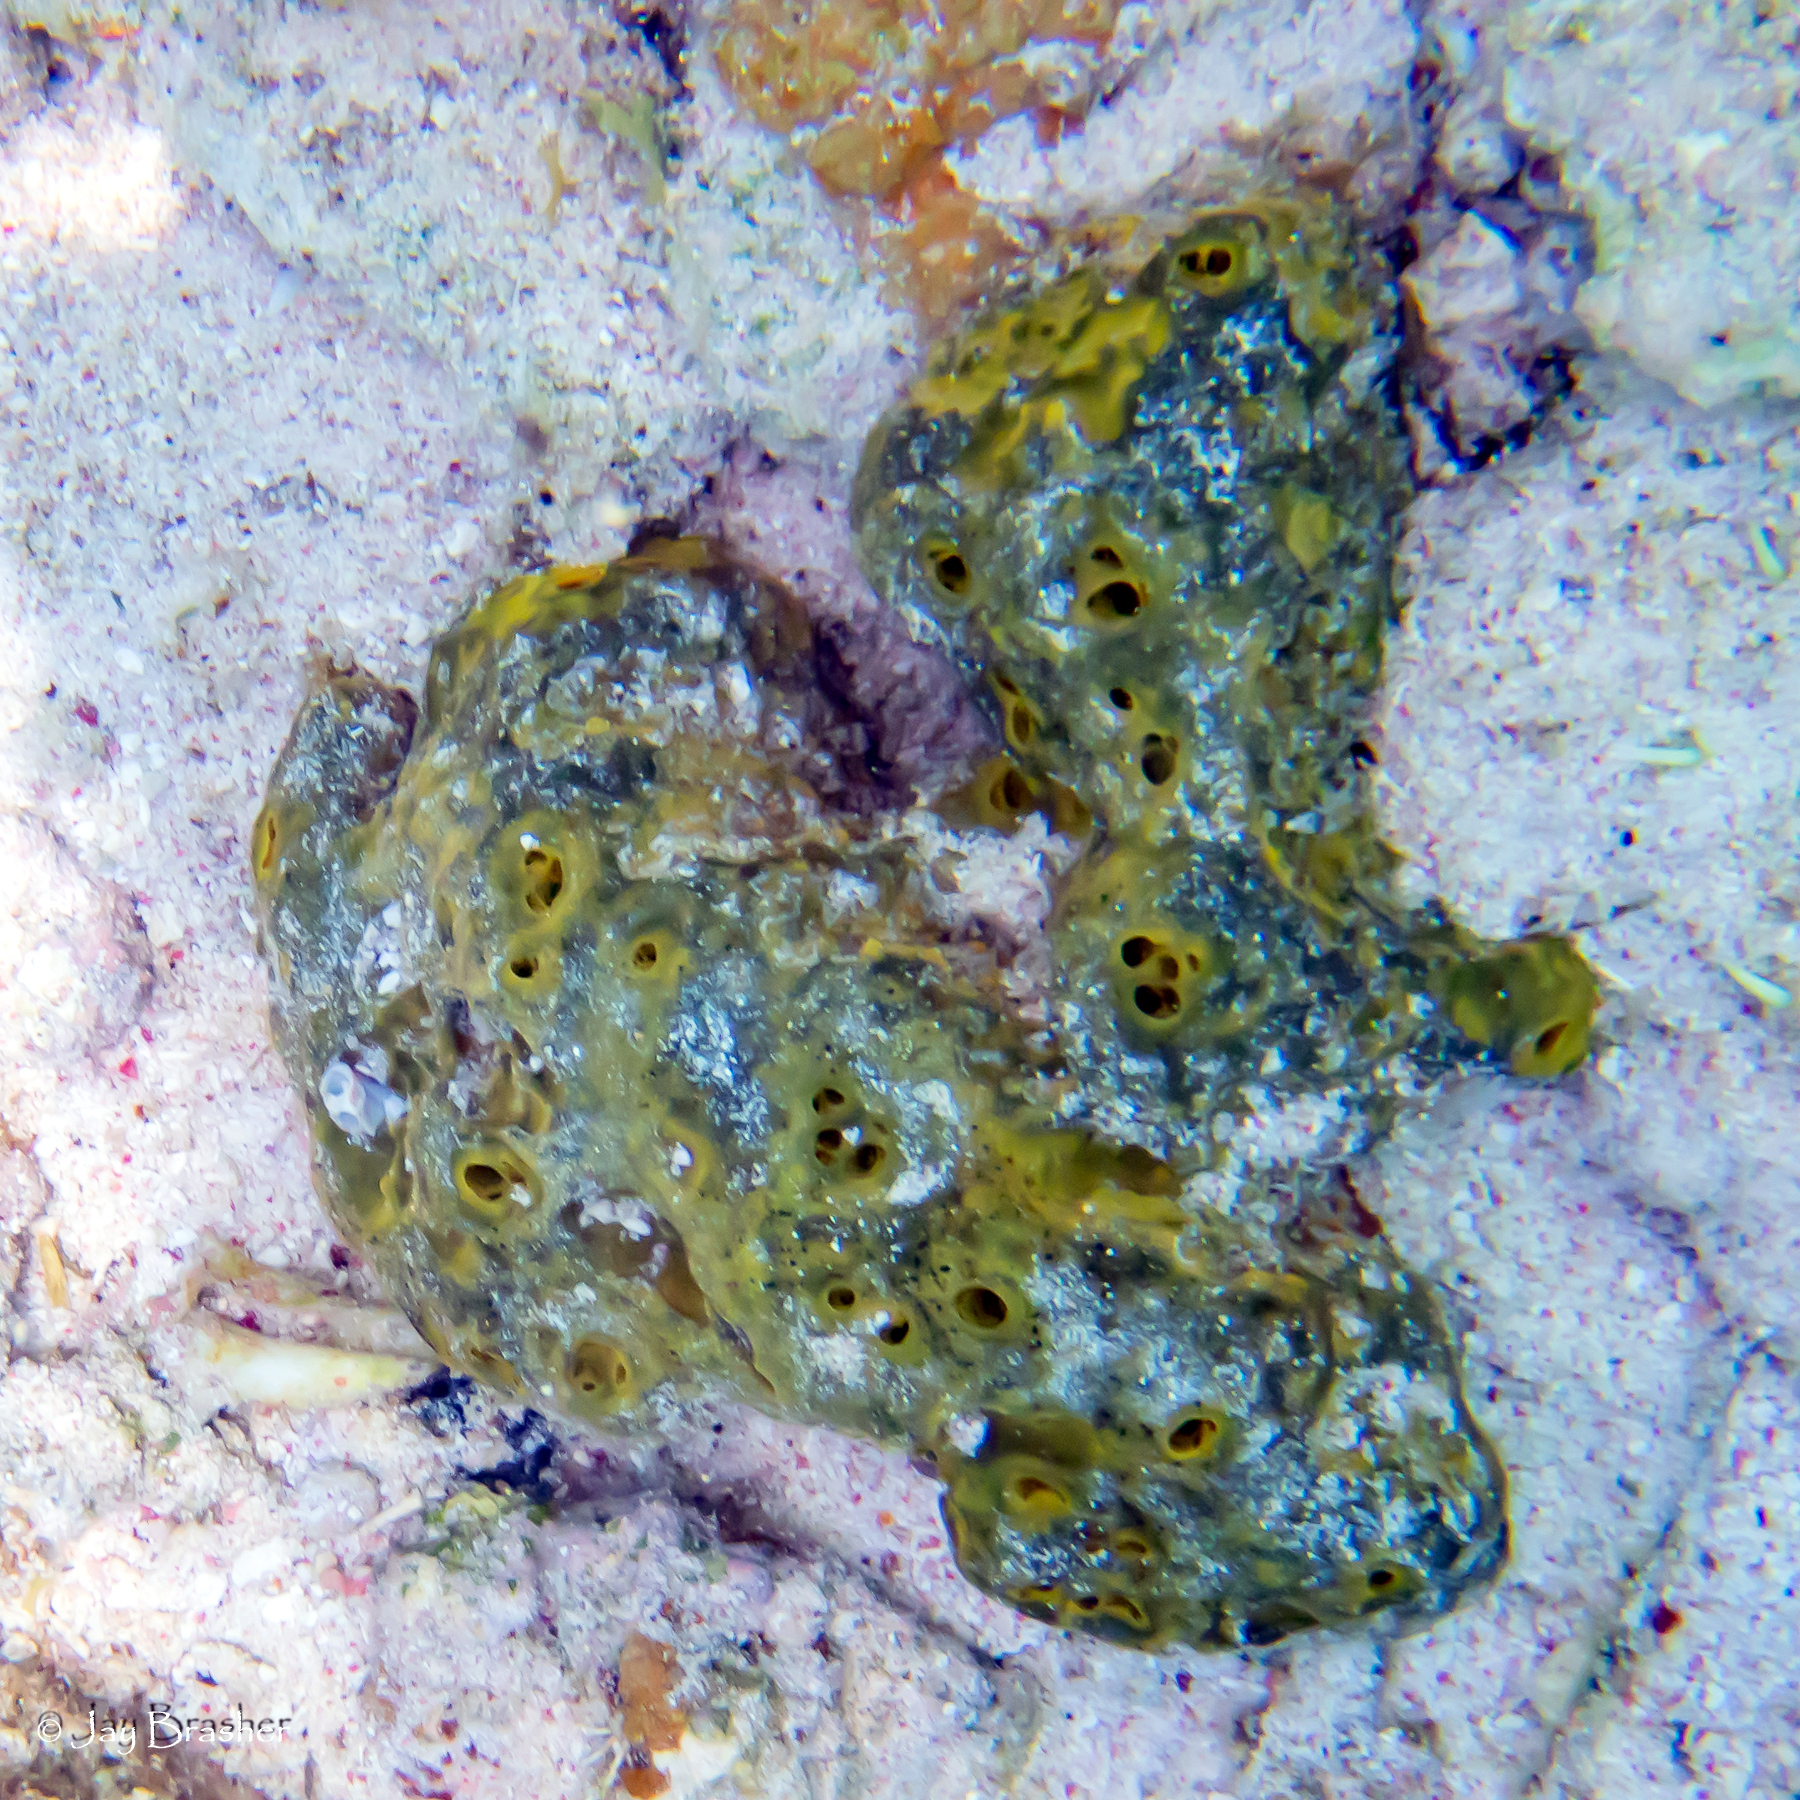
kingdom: Animalia
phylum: Porifera
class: Demospongiae
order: Verongiida
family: Aplysinidae
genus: Verongula
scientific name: Verongula rigida
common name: Pitted sponge
